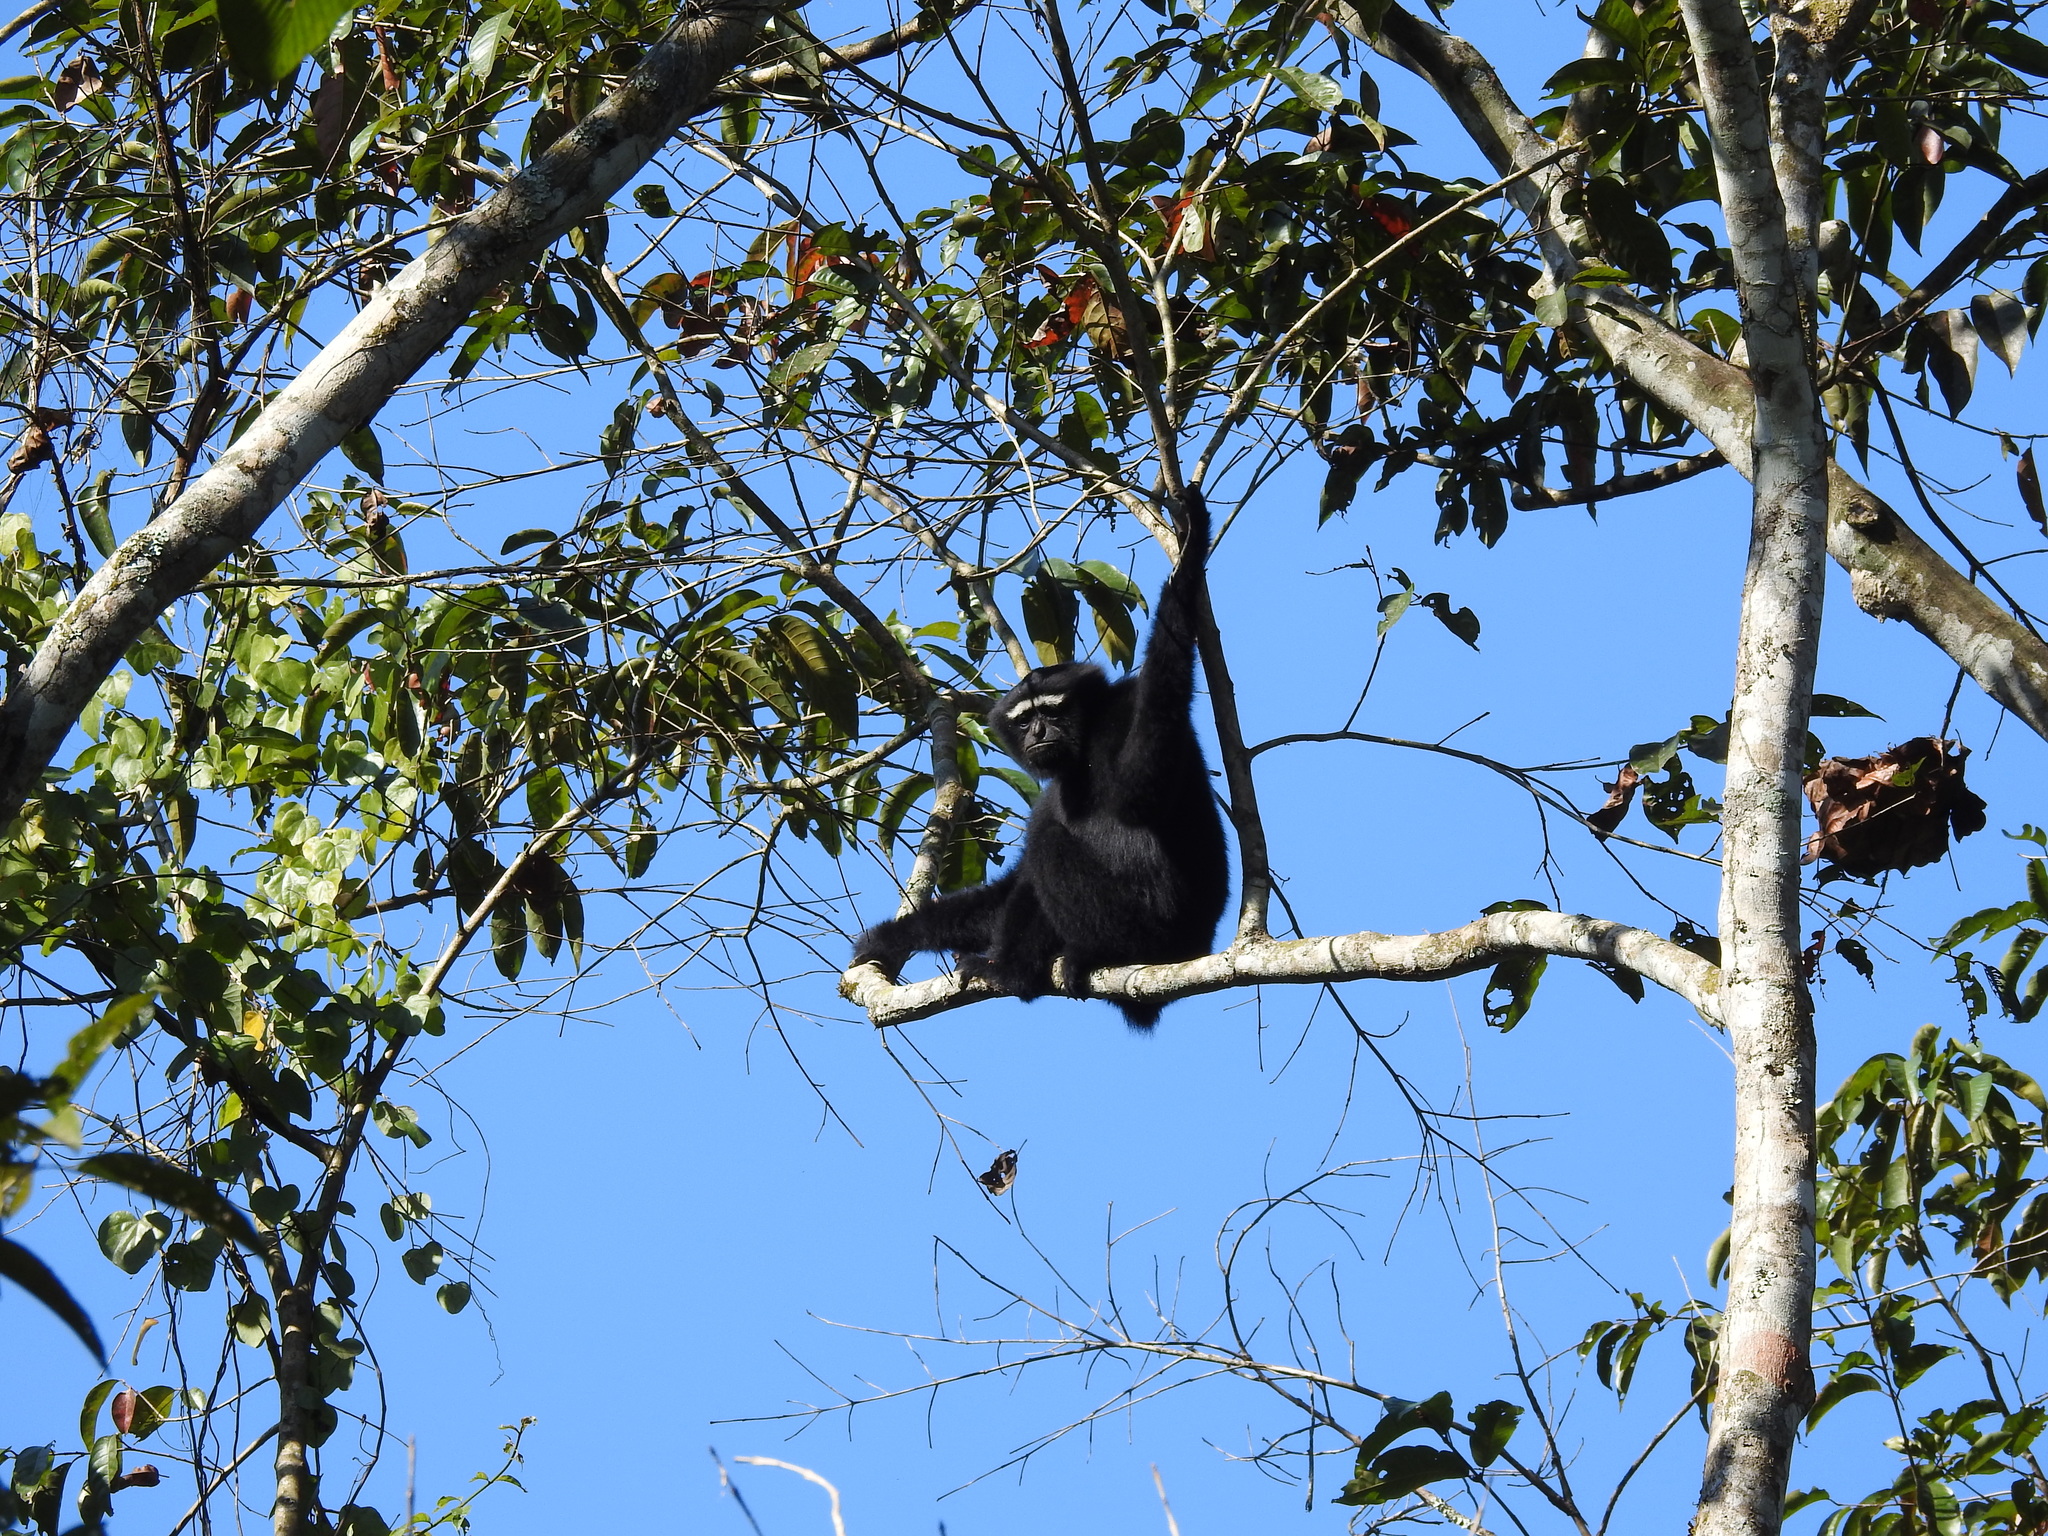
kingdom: Animalia
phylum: Chordata
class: Mammalia
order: Primates
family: Hylobatidae
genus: Hoolock
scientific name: Hoolock hoolock
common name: Western hoolock gibbon
